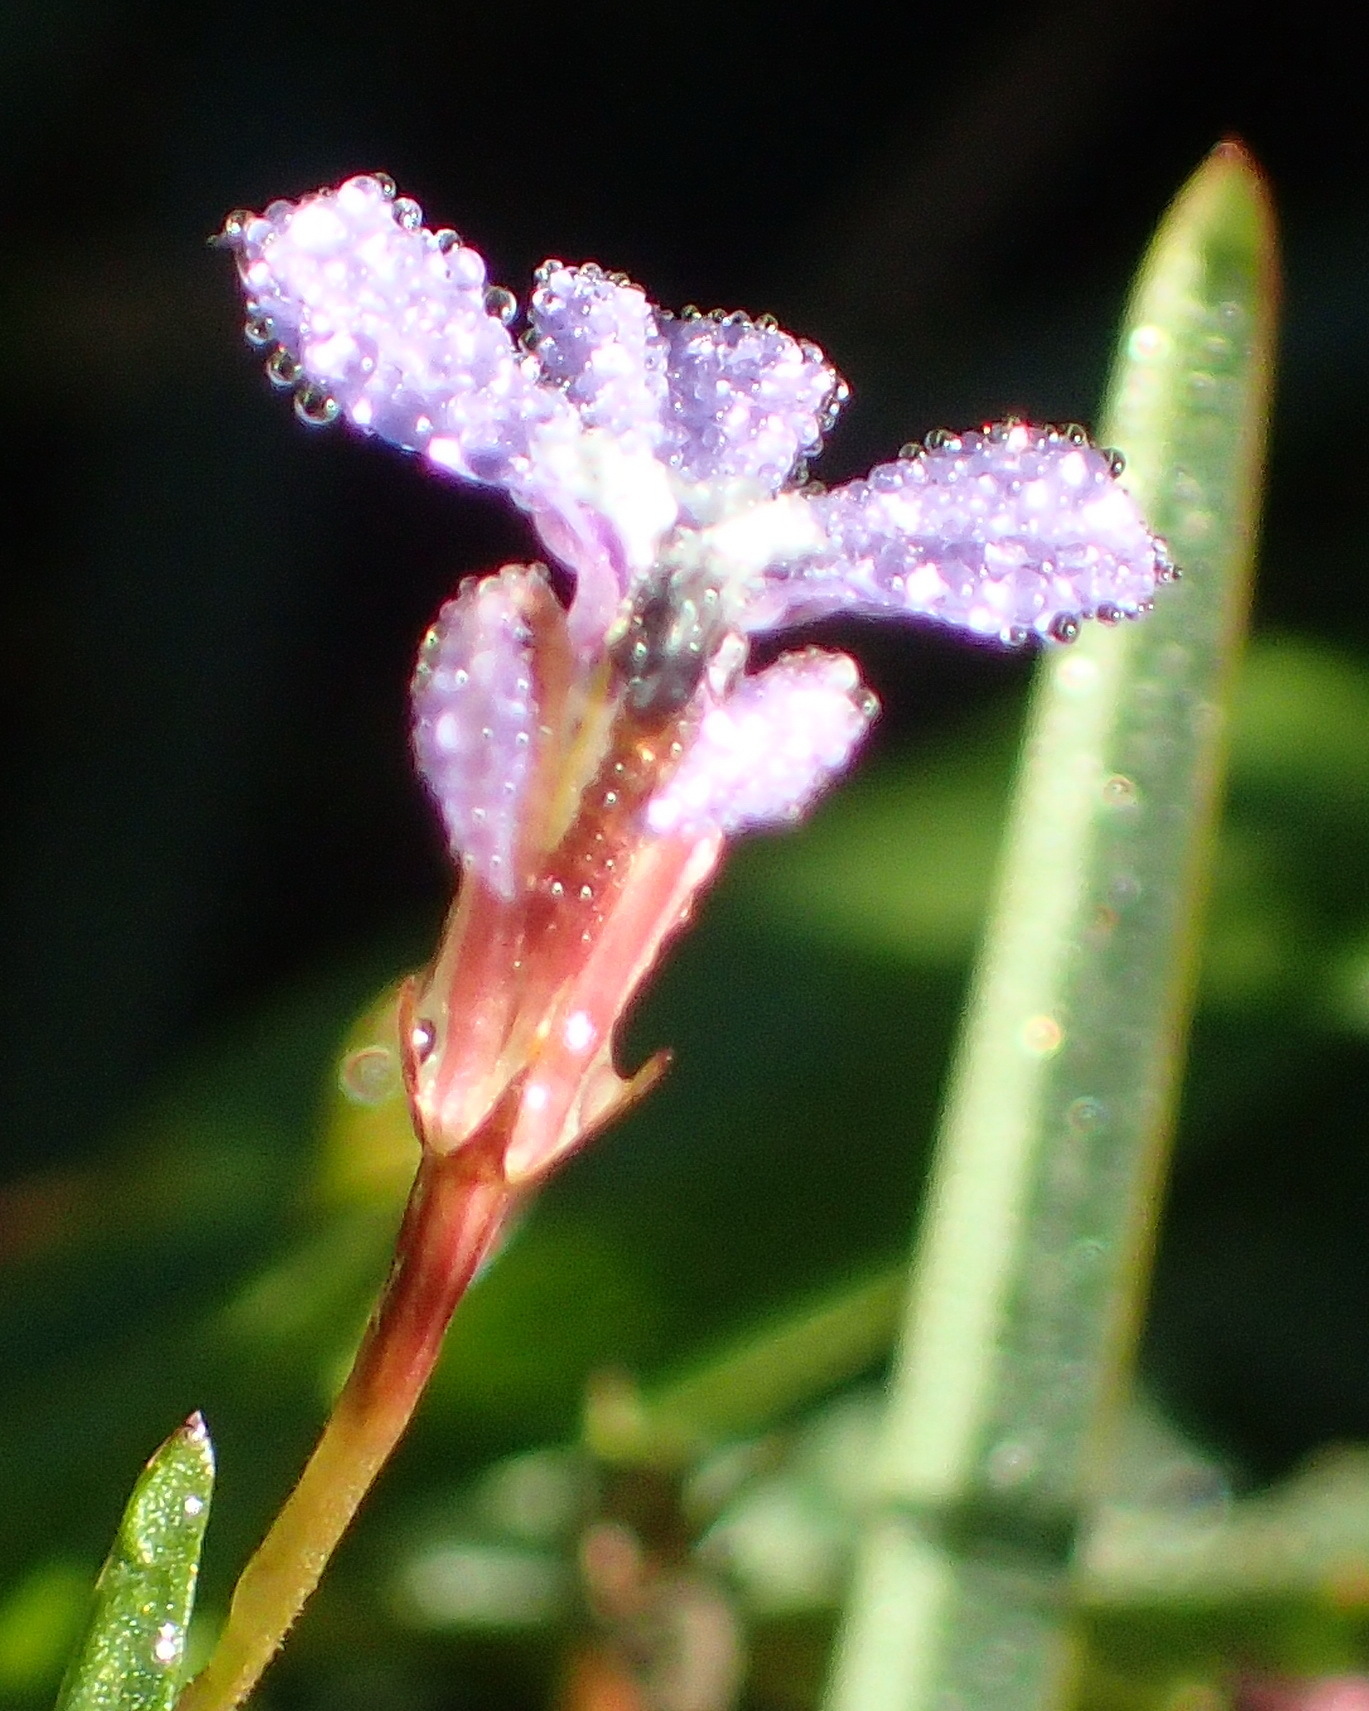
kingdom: Plantae
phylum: Tracheophyta
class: Magnoliopsida
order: Asterales
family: Campanulaceae
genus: Lobelia
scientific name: Lobelia anceps
